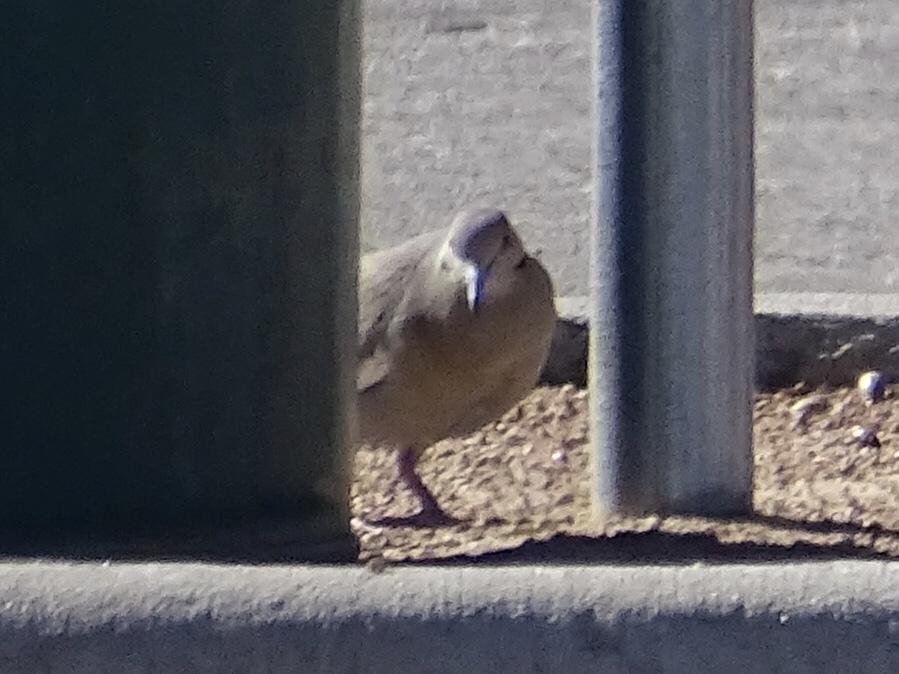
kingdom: Animalia
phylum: Chordata
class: Aves
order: Columbiformes
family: Columbidae
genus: Zenaida
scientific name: Zenaida asiatica
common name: White-winged dove
